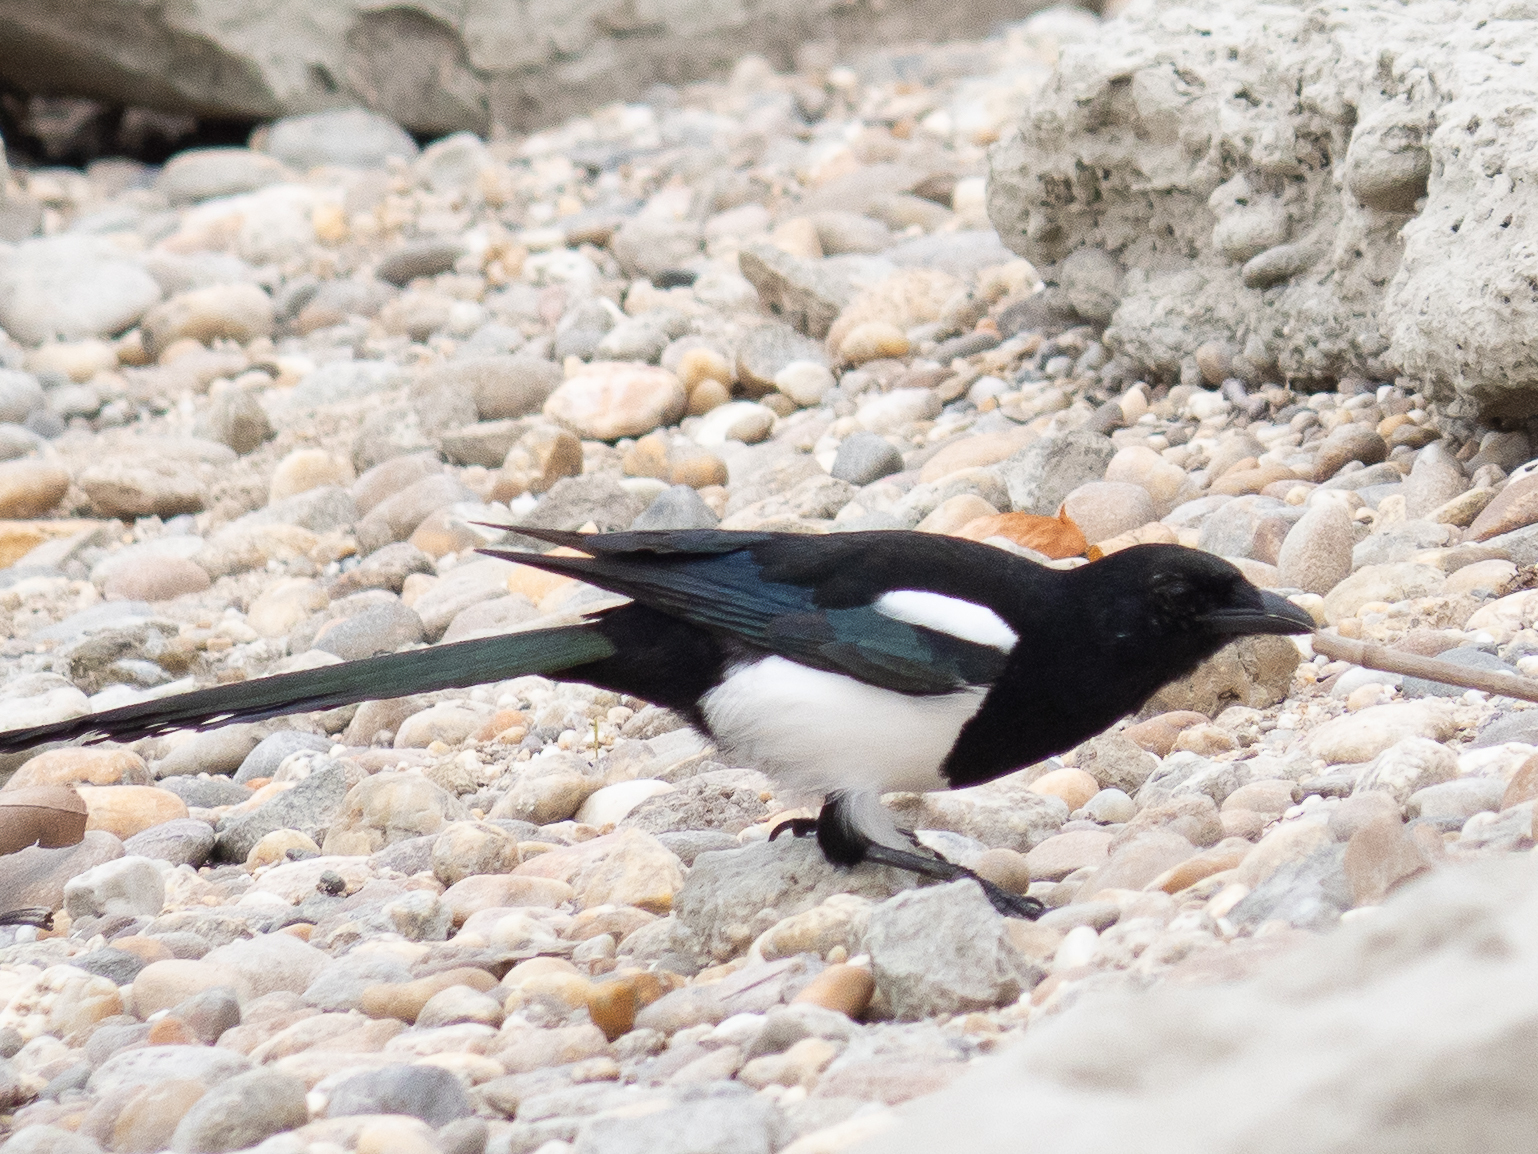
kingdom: Animalia
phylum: Chordata
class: Aves
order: Passeriformes
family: Corvidae
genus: Pica
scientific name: Pica pica
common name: Eurasian magpie
